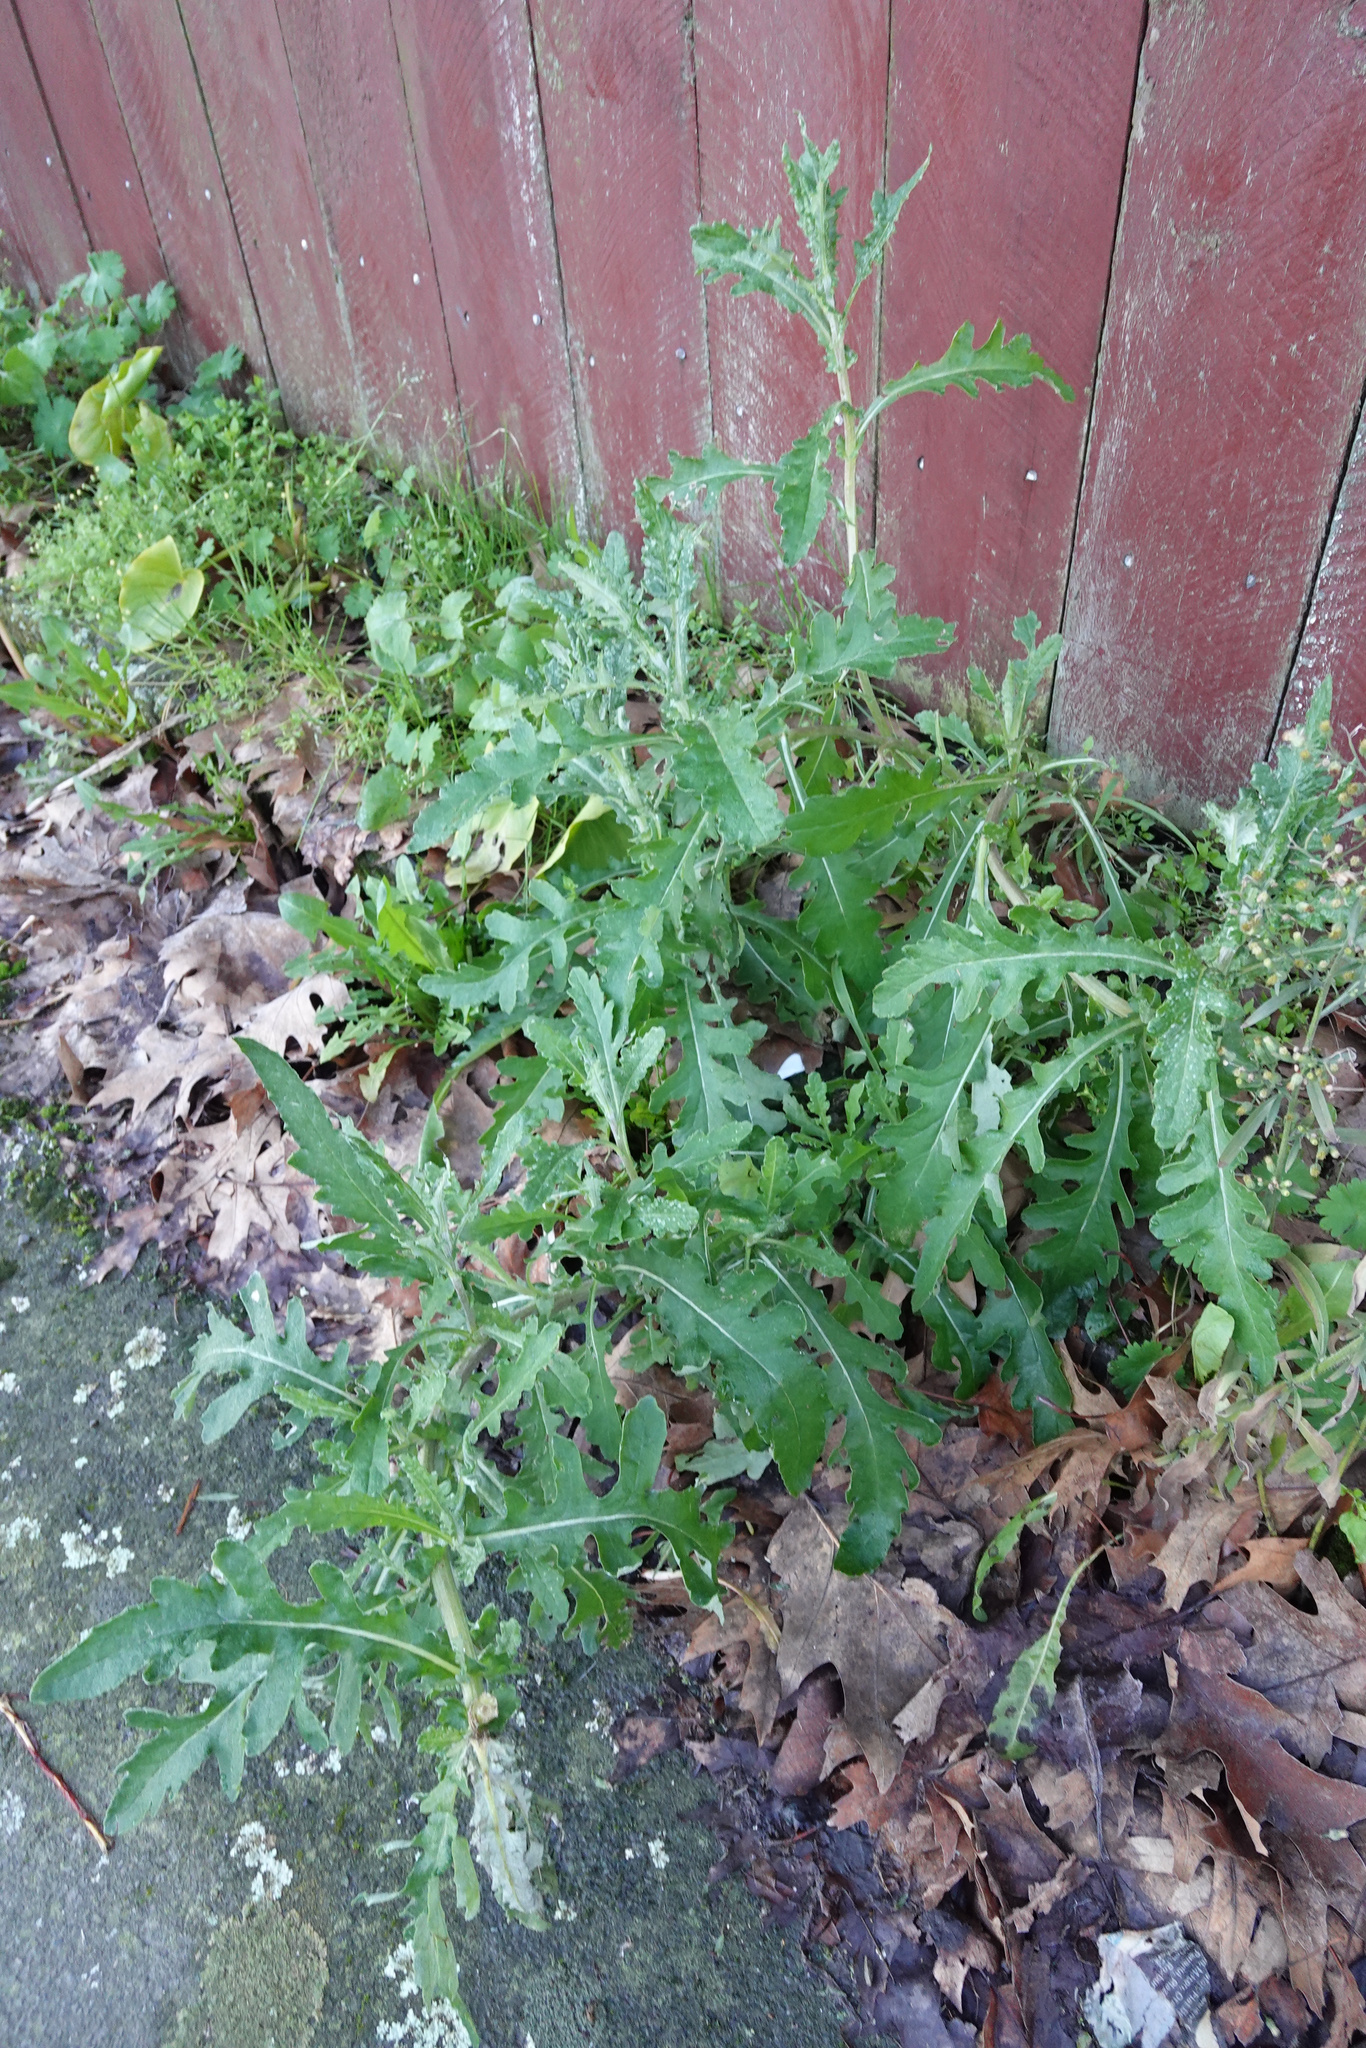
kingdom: Plantae
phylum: Tracheophyta
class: Magnoliopsida
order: Asterales
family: Asteraceae
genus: Senecio
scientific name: Senecio glomeratus
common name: Cutleaf burnweed
